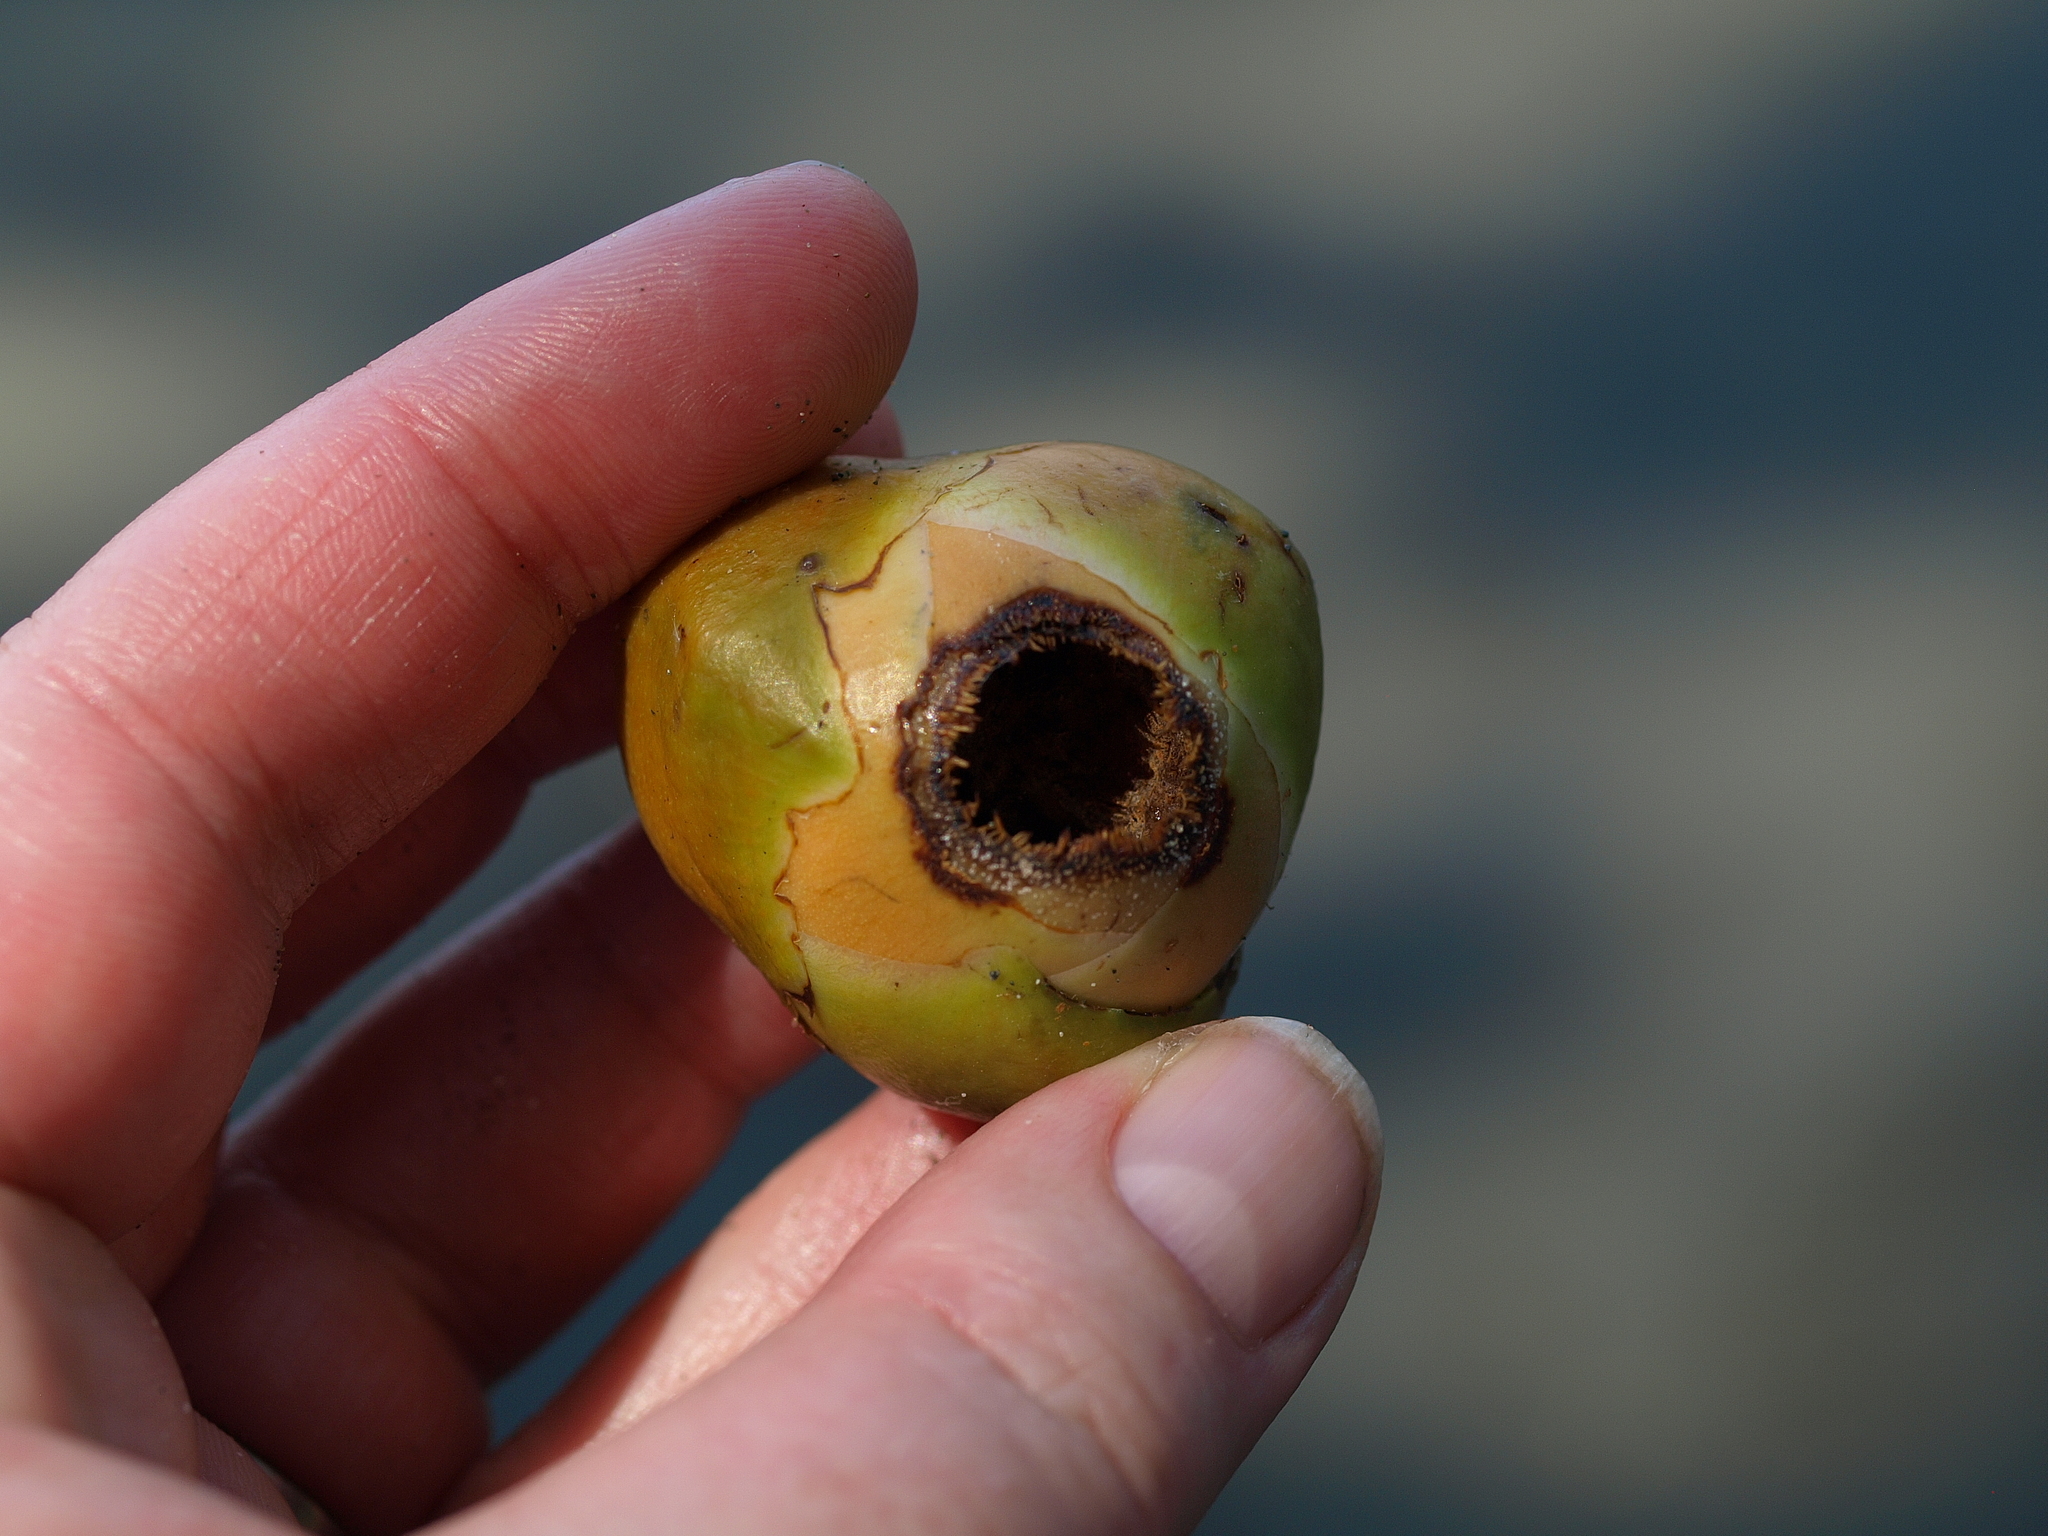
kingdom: Plantae
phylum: Tracheophyta
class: Liliopsida
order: Arecales
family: Arecaceae
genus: Cocos
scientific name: Cocos nucifera
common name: Coconut palm
